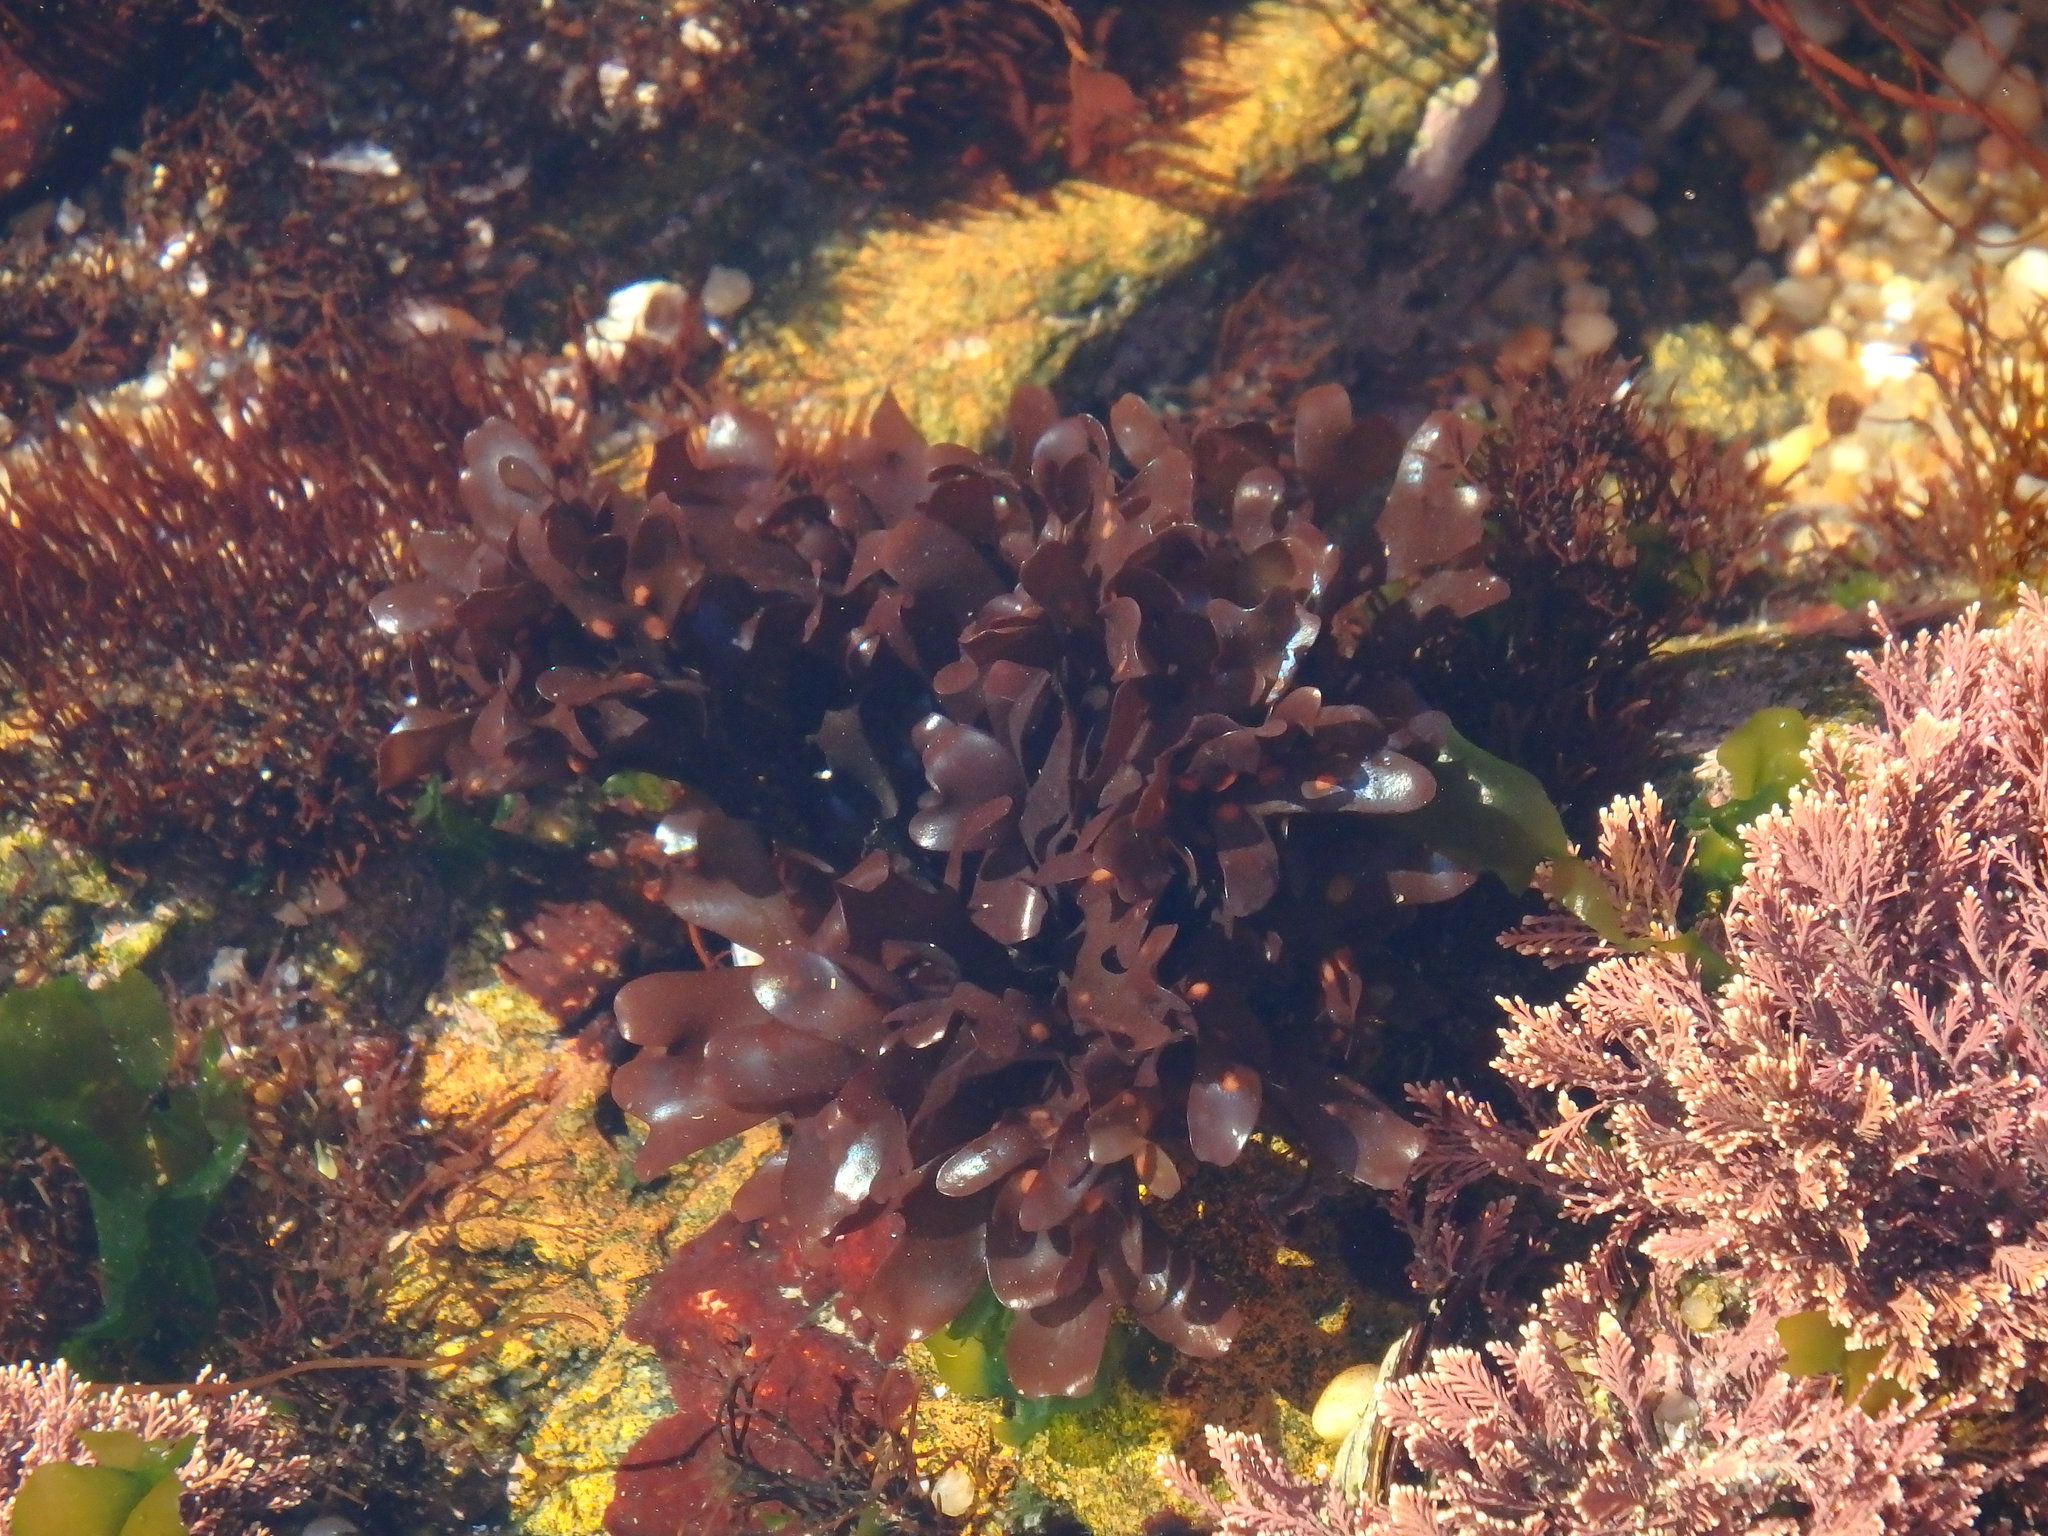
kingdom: Plantae
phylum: Rhodophyta
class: Florideophyceae
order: Gigartinales
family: Gigartinaceae
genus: Chondrus
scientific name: Chondrus crispus
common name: Carrageen
